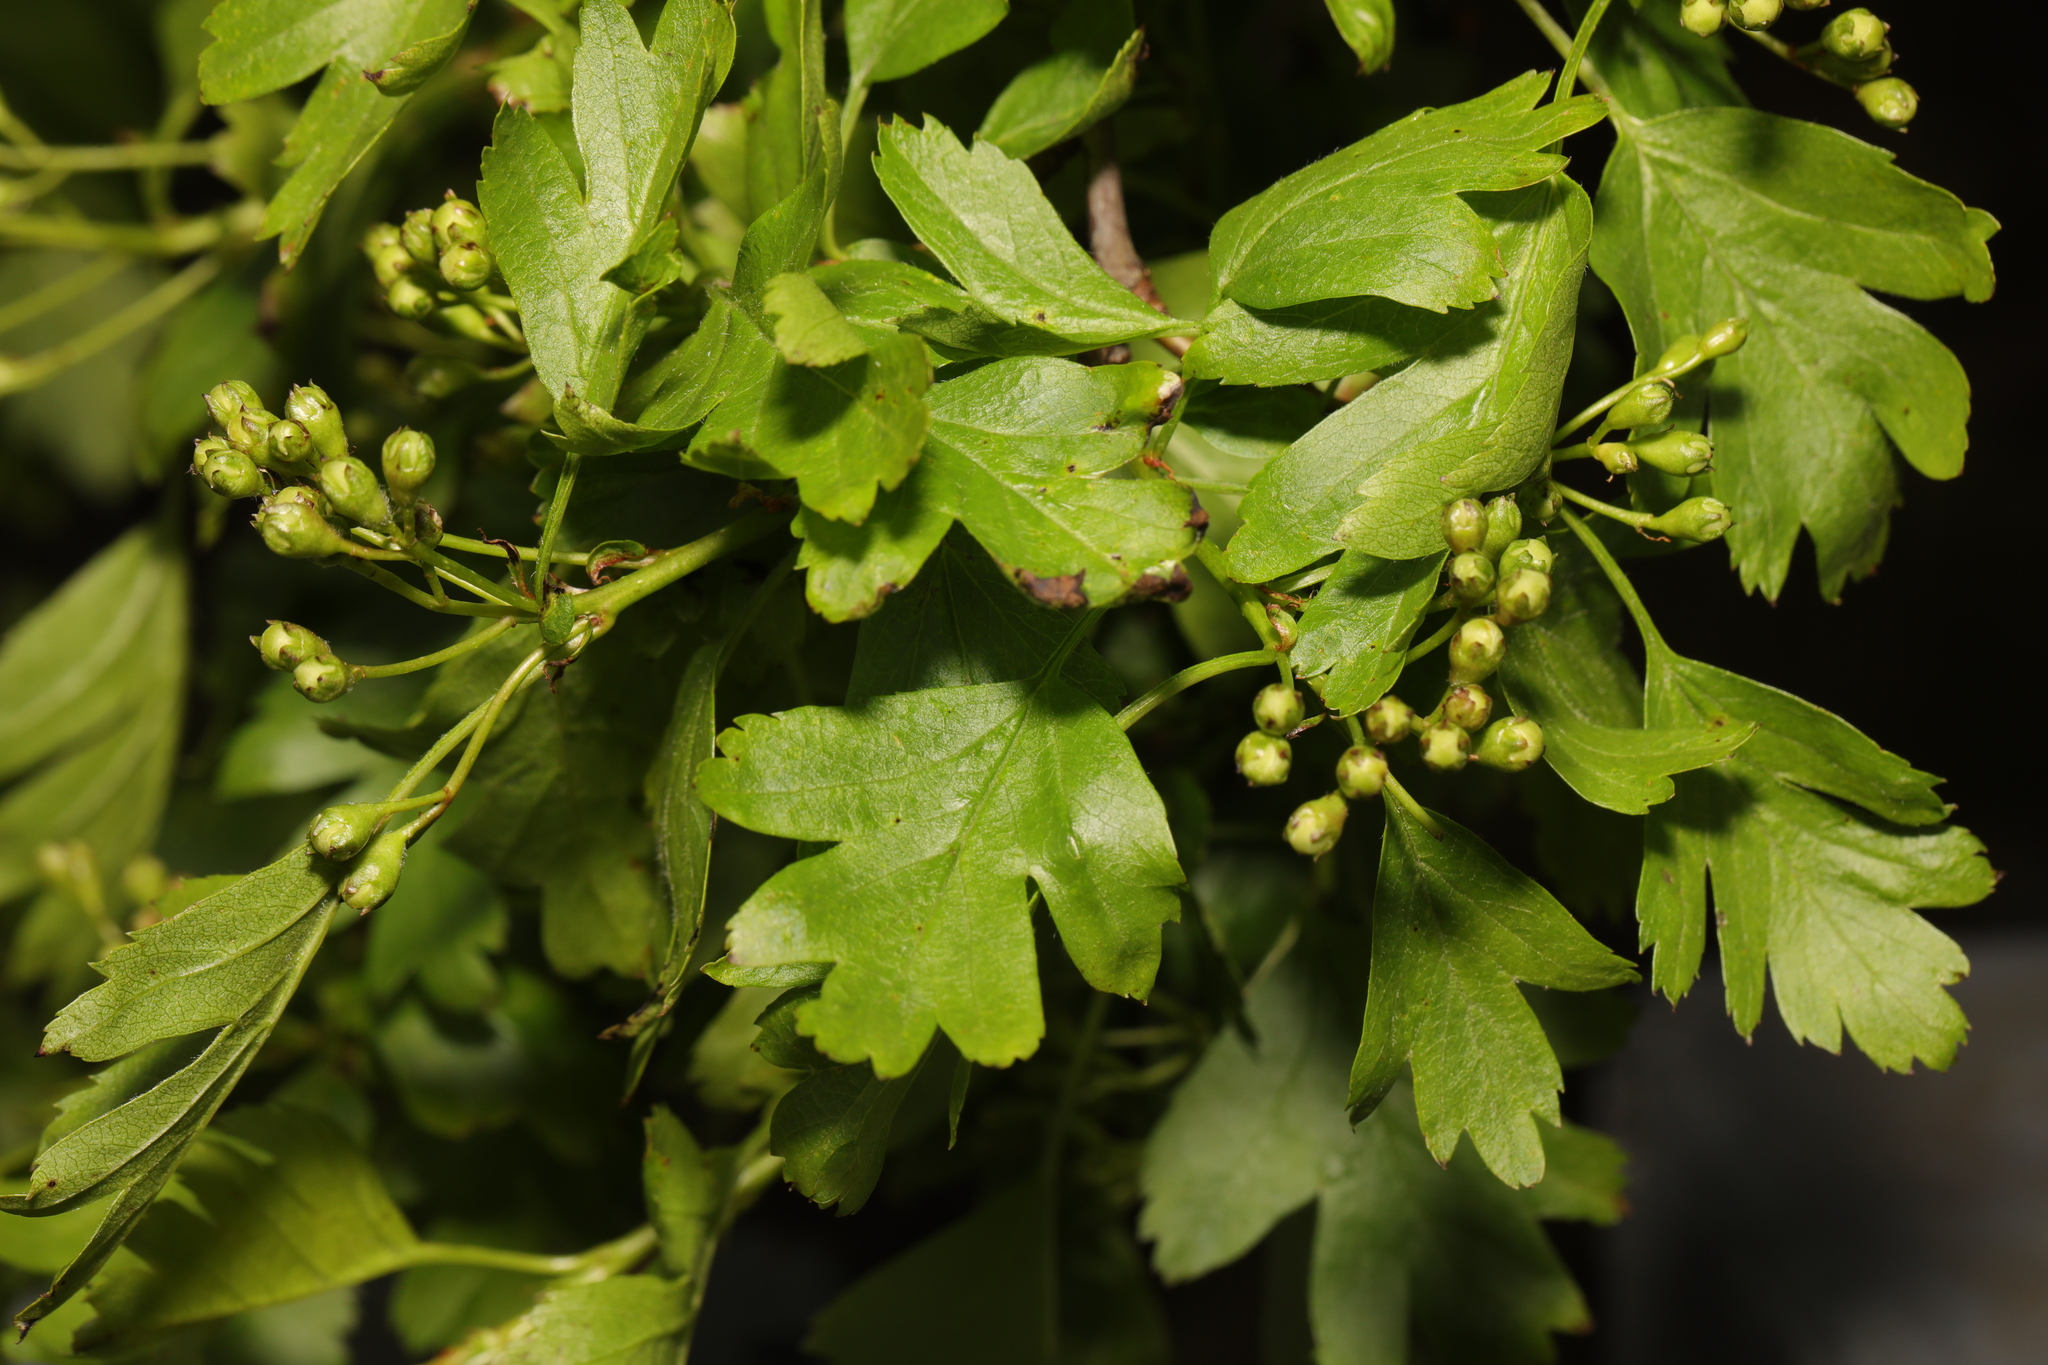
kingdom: Plantae
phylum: Tracheophyta
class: Magnoliopsida
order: Rosales
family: Rosaceae
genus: Crataegus
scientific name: Crataegus monogyna
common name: Hawthorn
